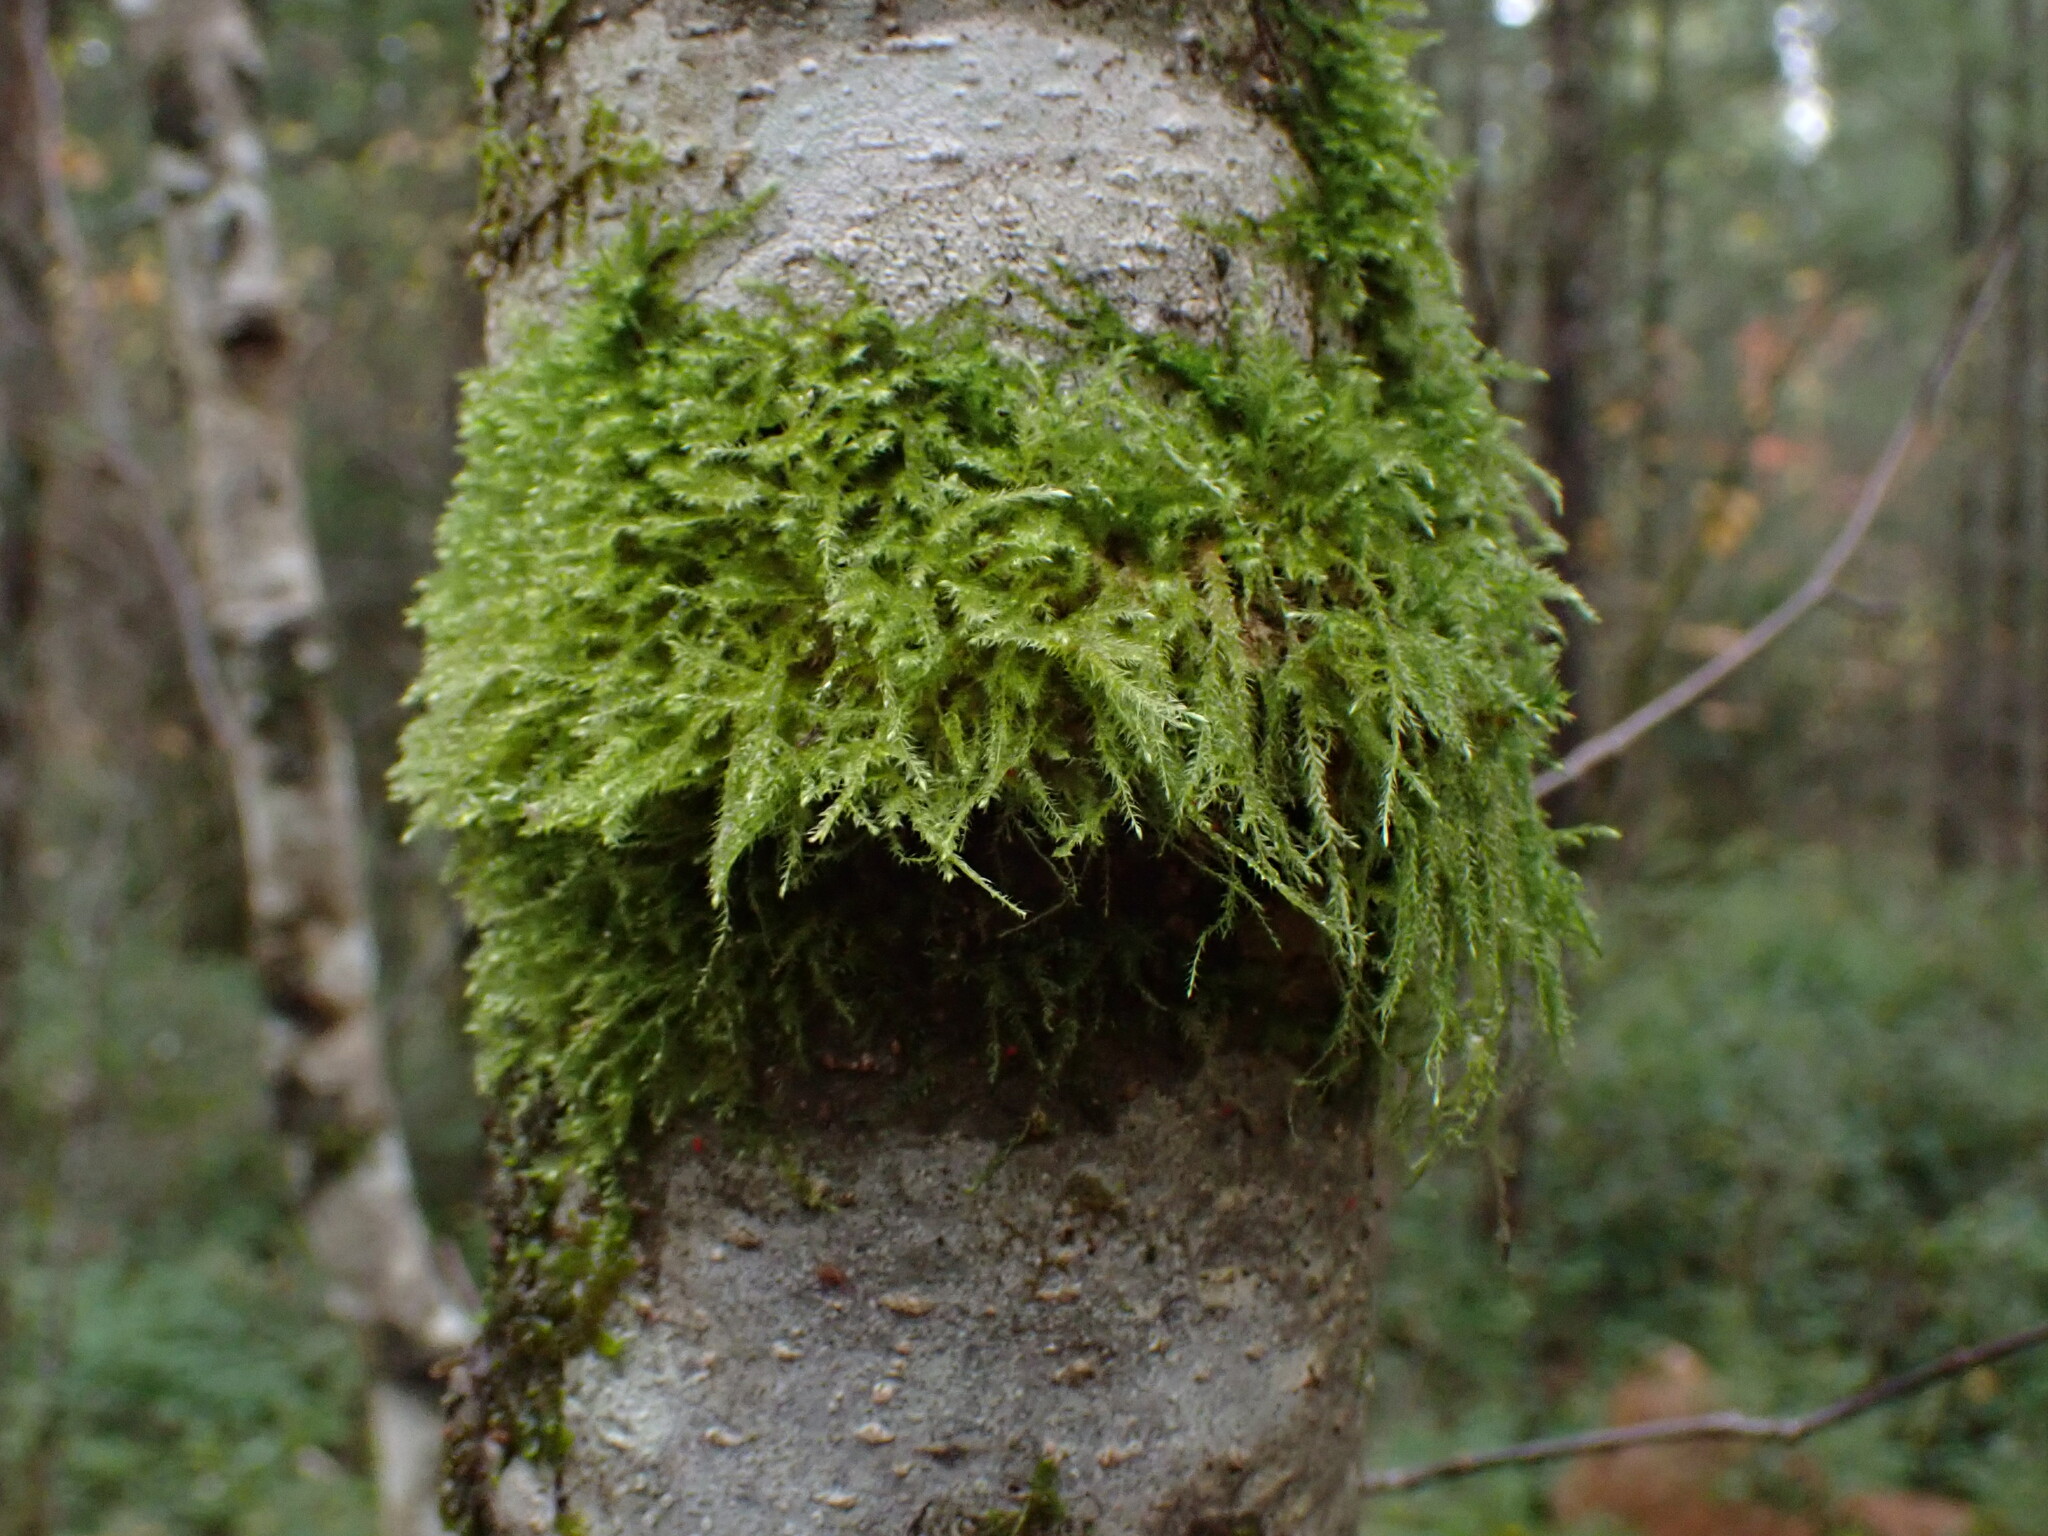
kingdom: Plantae
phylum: Bryophyta
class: Bryopsida
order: Hypnales
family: Lembophyllaceae
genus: Pseudisothecium
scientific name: Pseudisothecium stoloniferum
